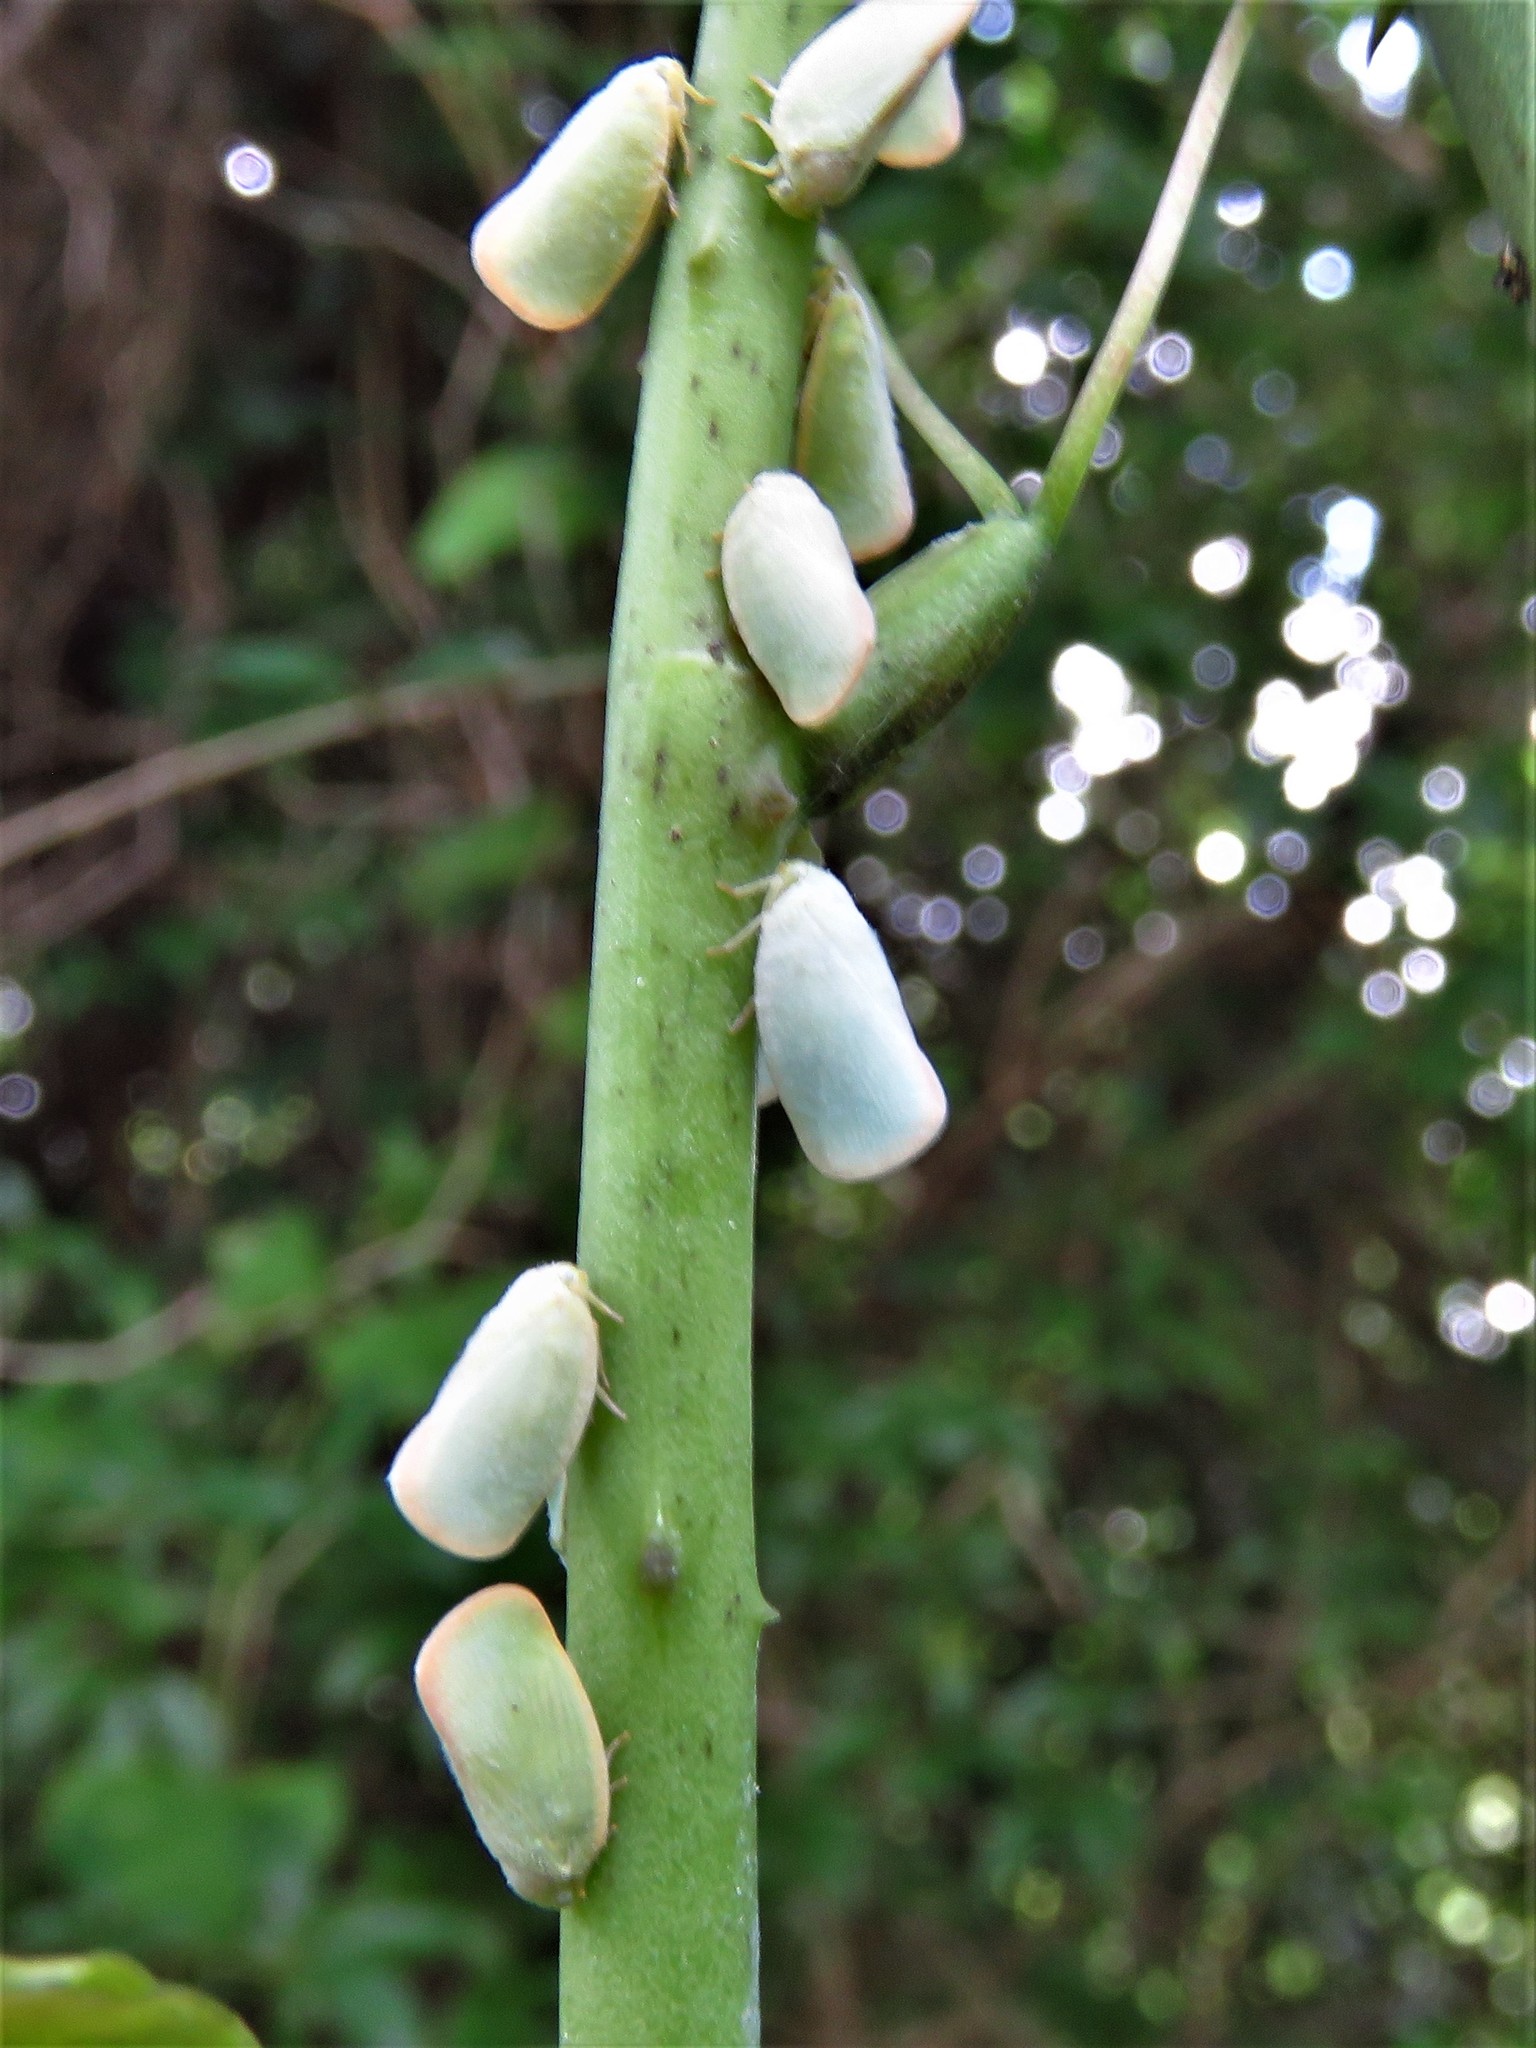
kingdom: Animalia
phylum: Arthropoda
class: Insecta
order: Hemiptera
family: Flatidae
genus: Ormenoides
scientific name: Ormenoides venusta
